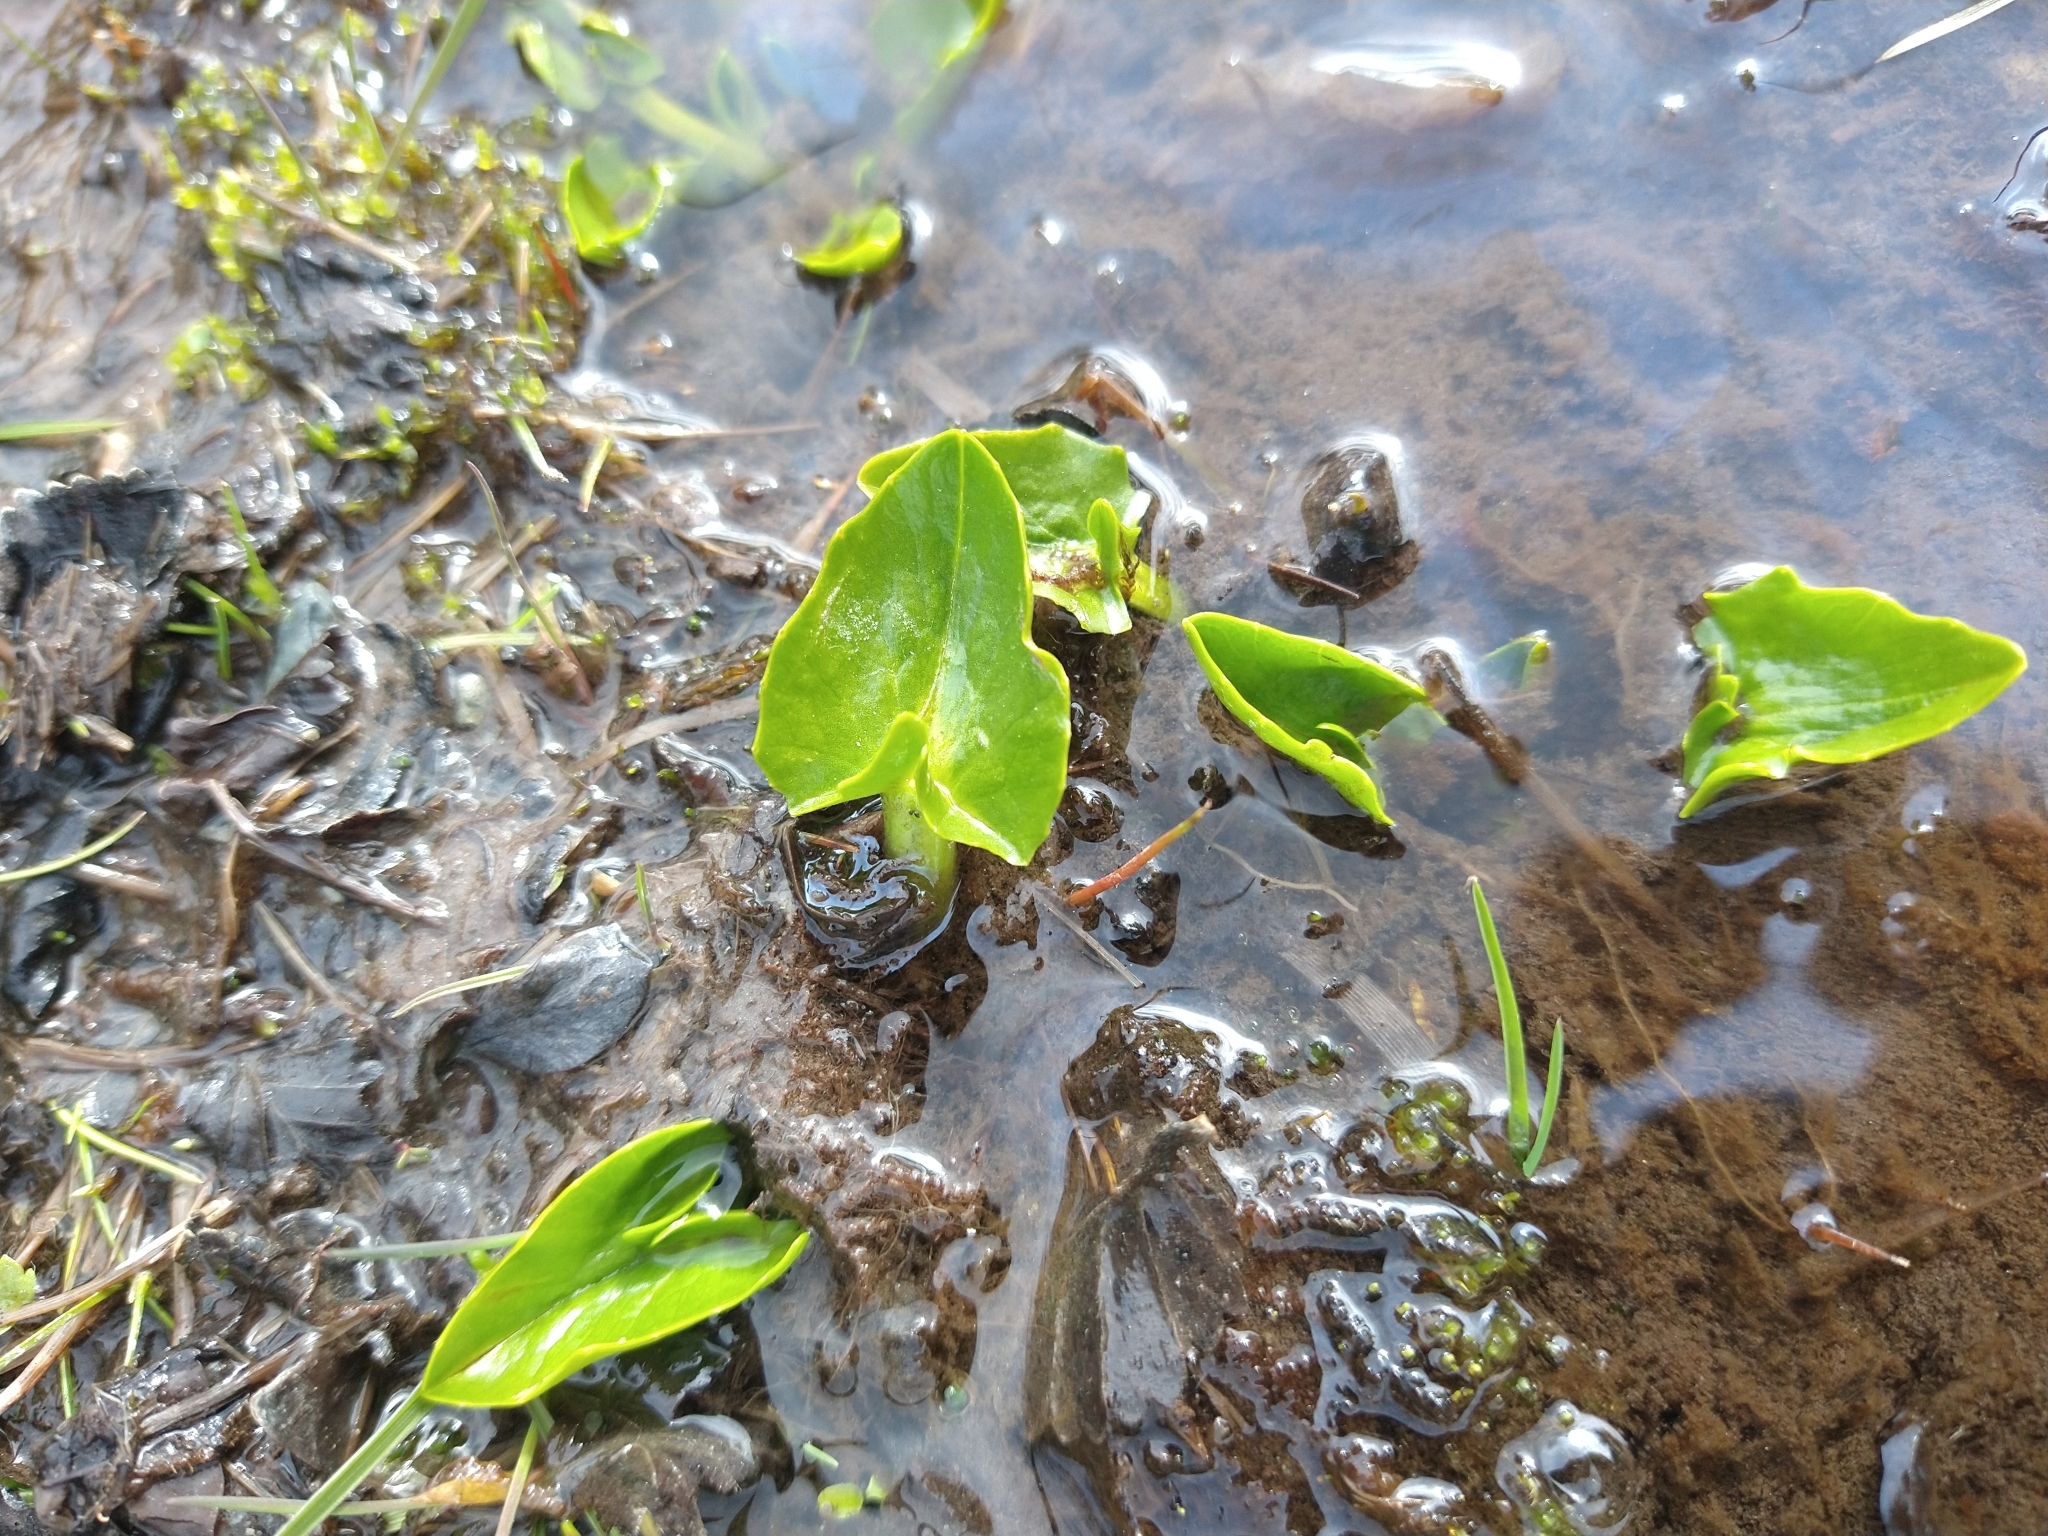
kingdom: Plantae
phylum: Tracheophyta
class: Magnoliopsida
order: Ranunculales
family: Ranunculaceae
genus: Caltha
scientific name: Caltha sagittata
